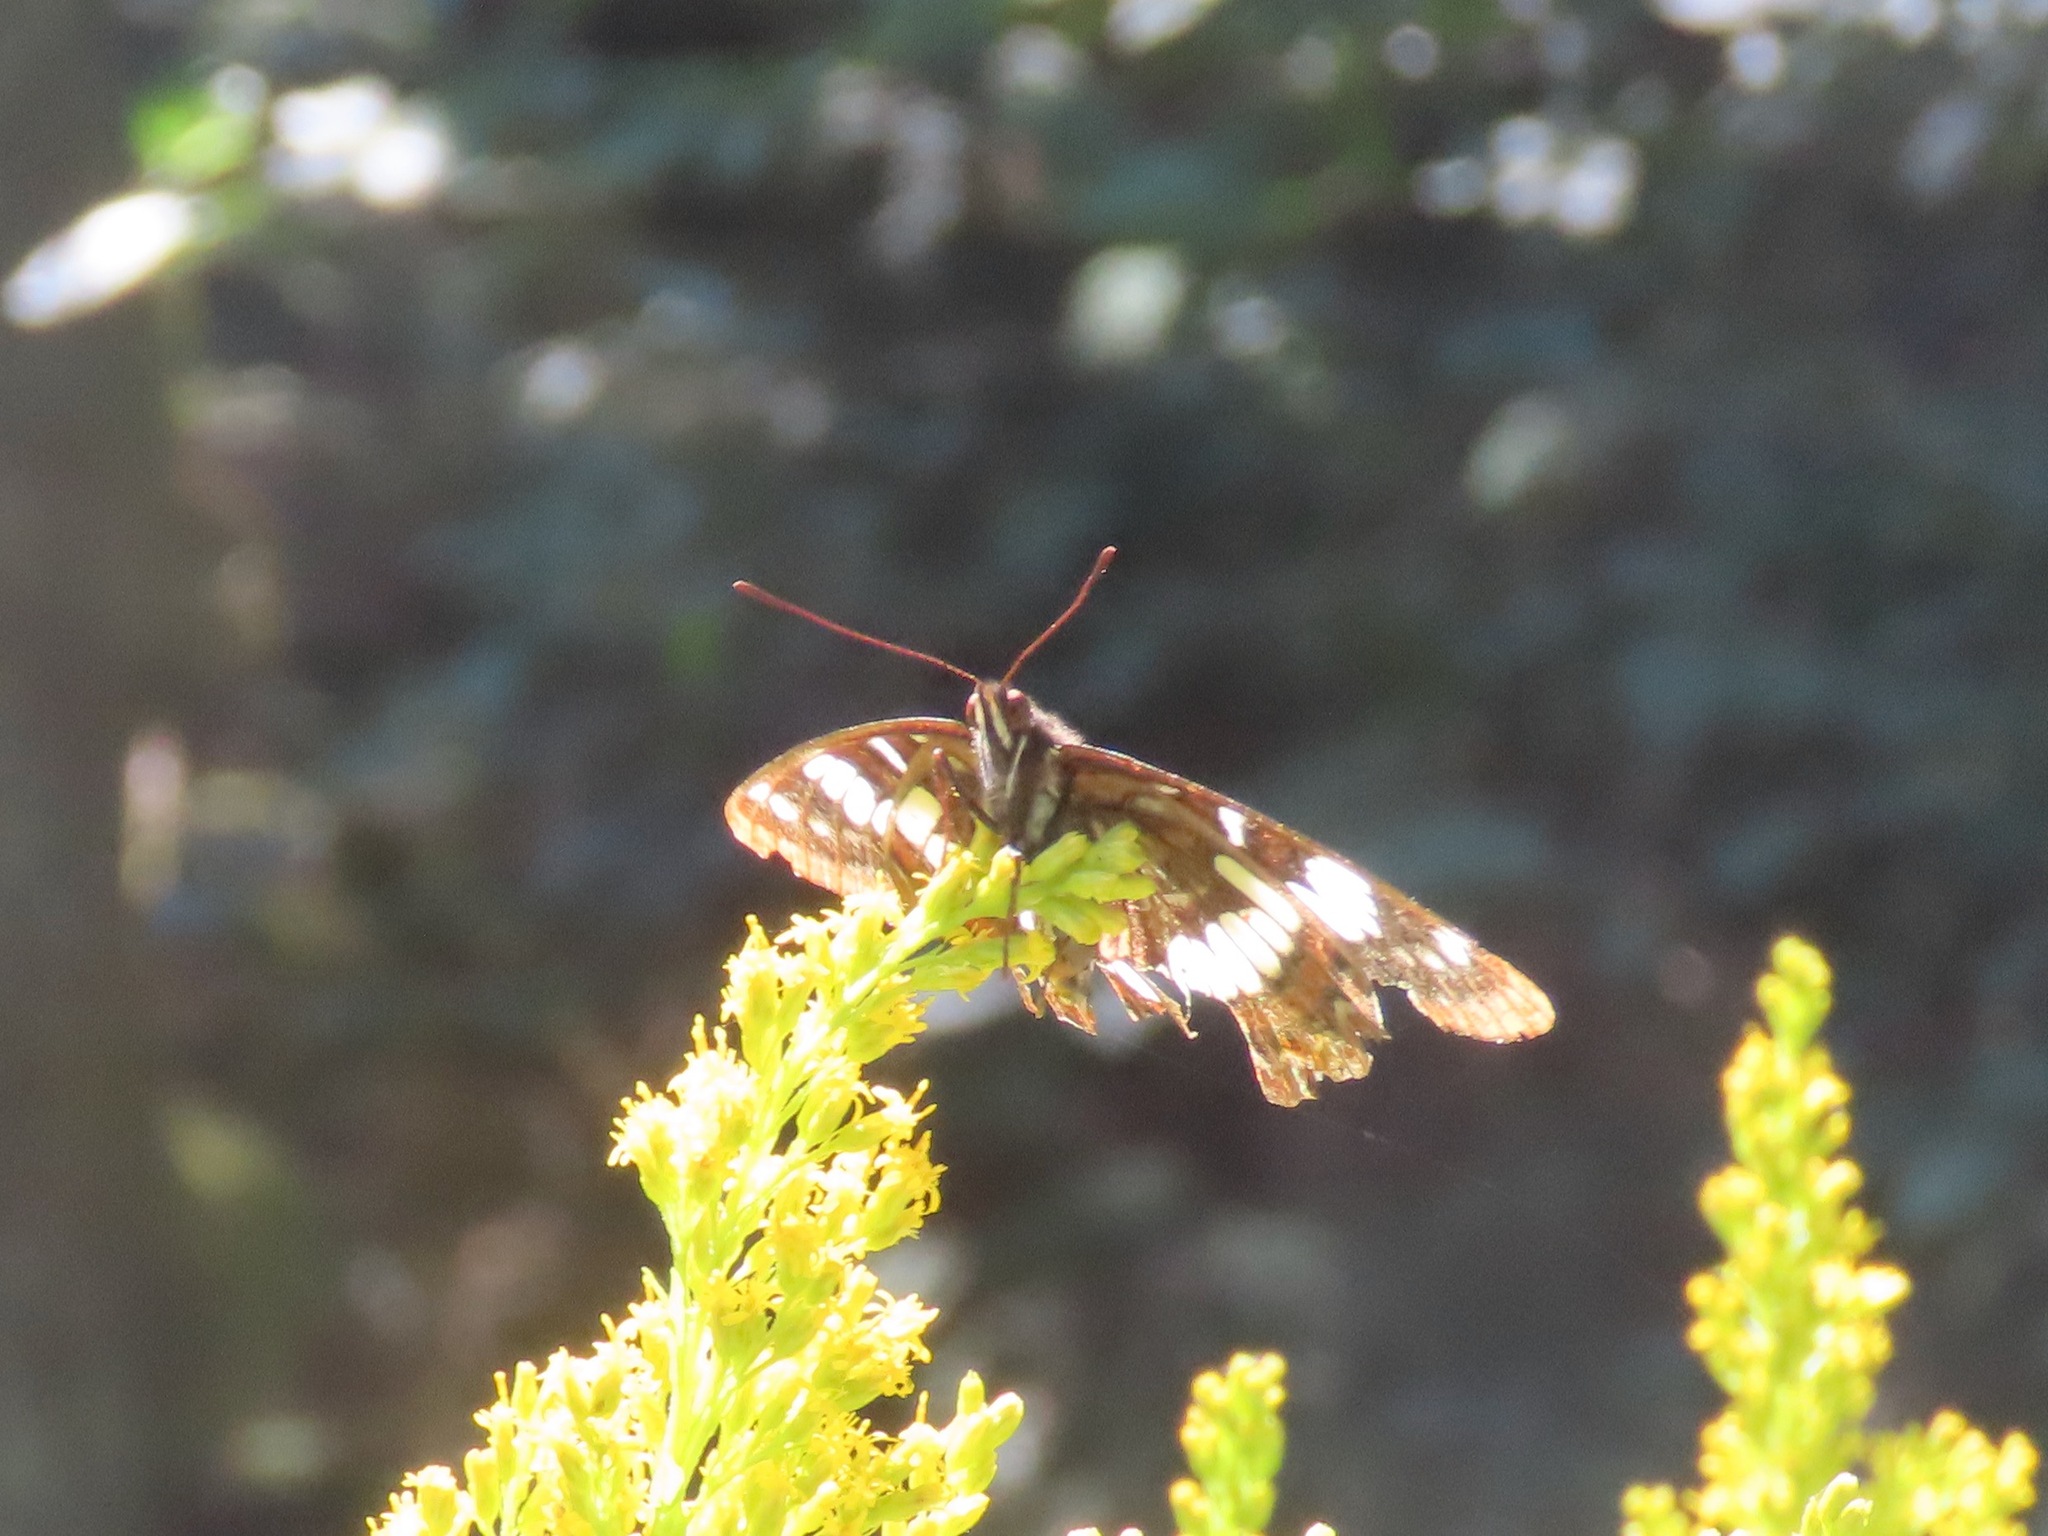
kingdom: Animalia
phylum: Arthropoda
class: Insecta
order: Lepidoptera
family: Nymphalidae
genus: Limenitis
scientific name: Limenitis lorquini
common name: Lorquin's admiral
